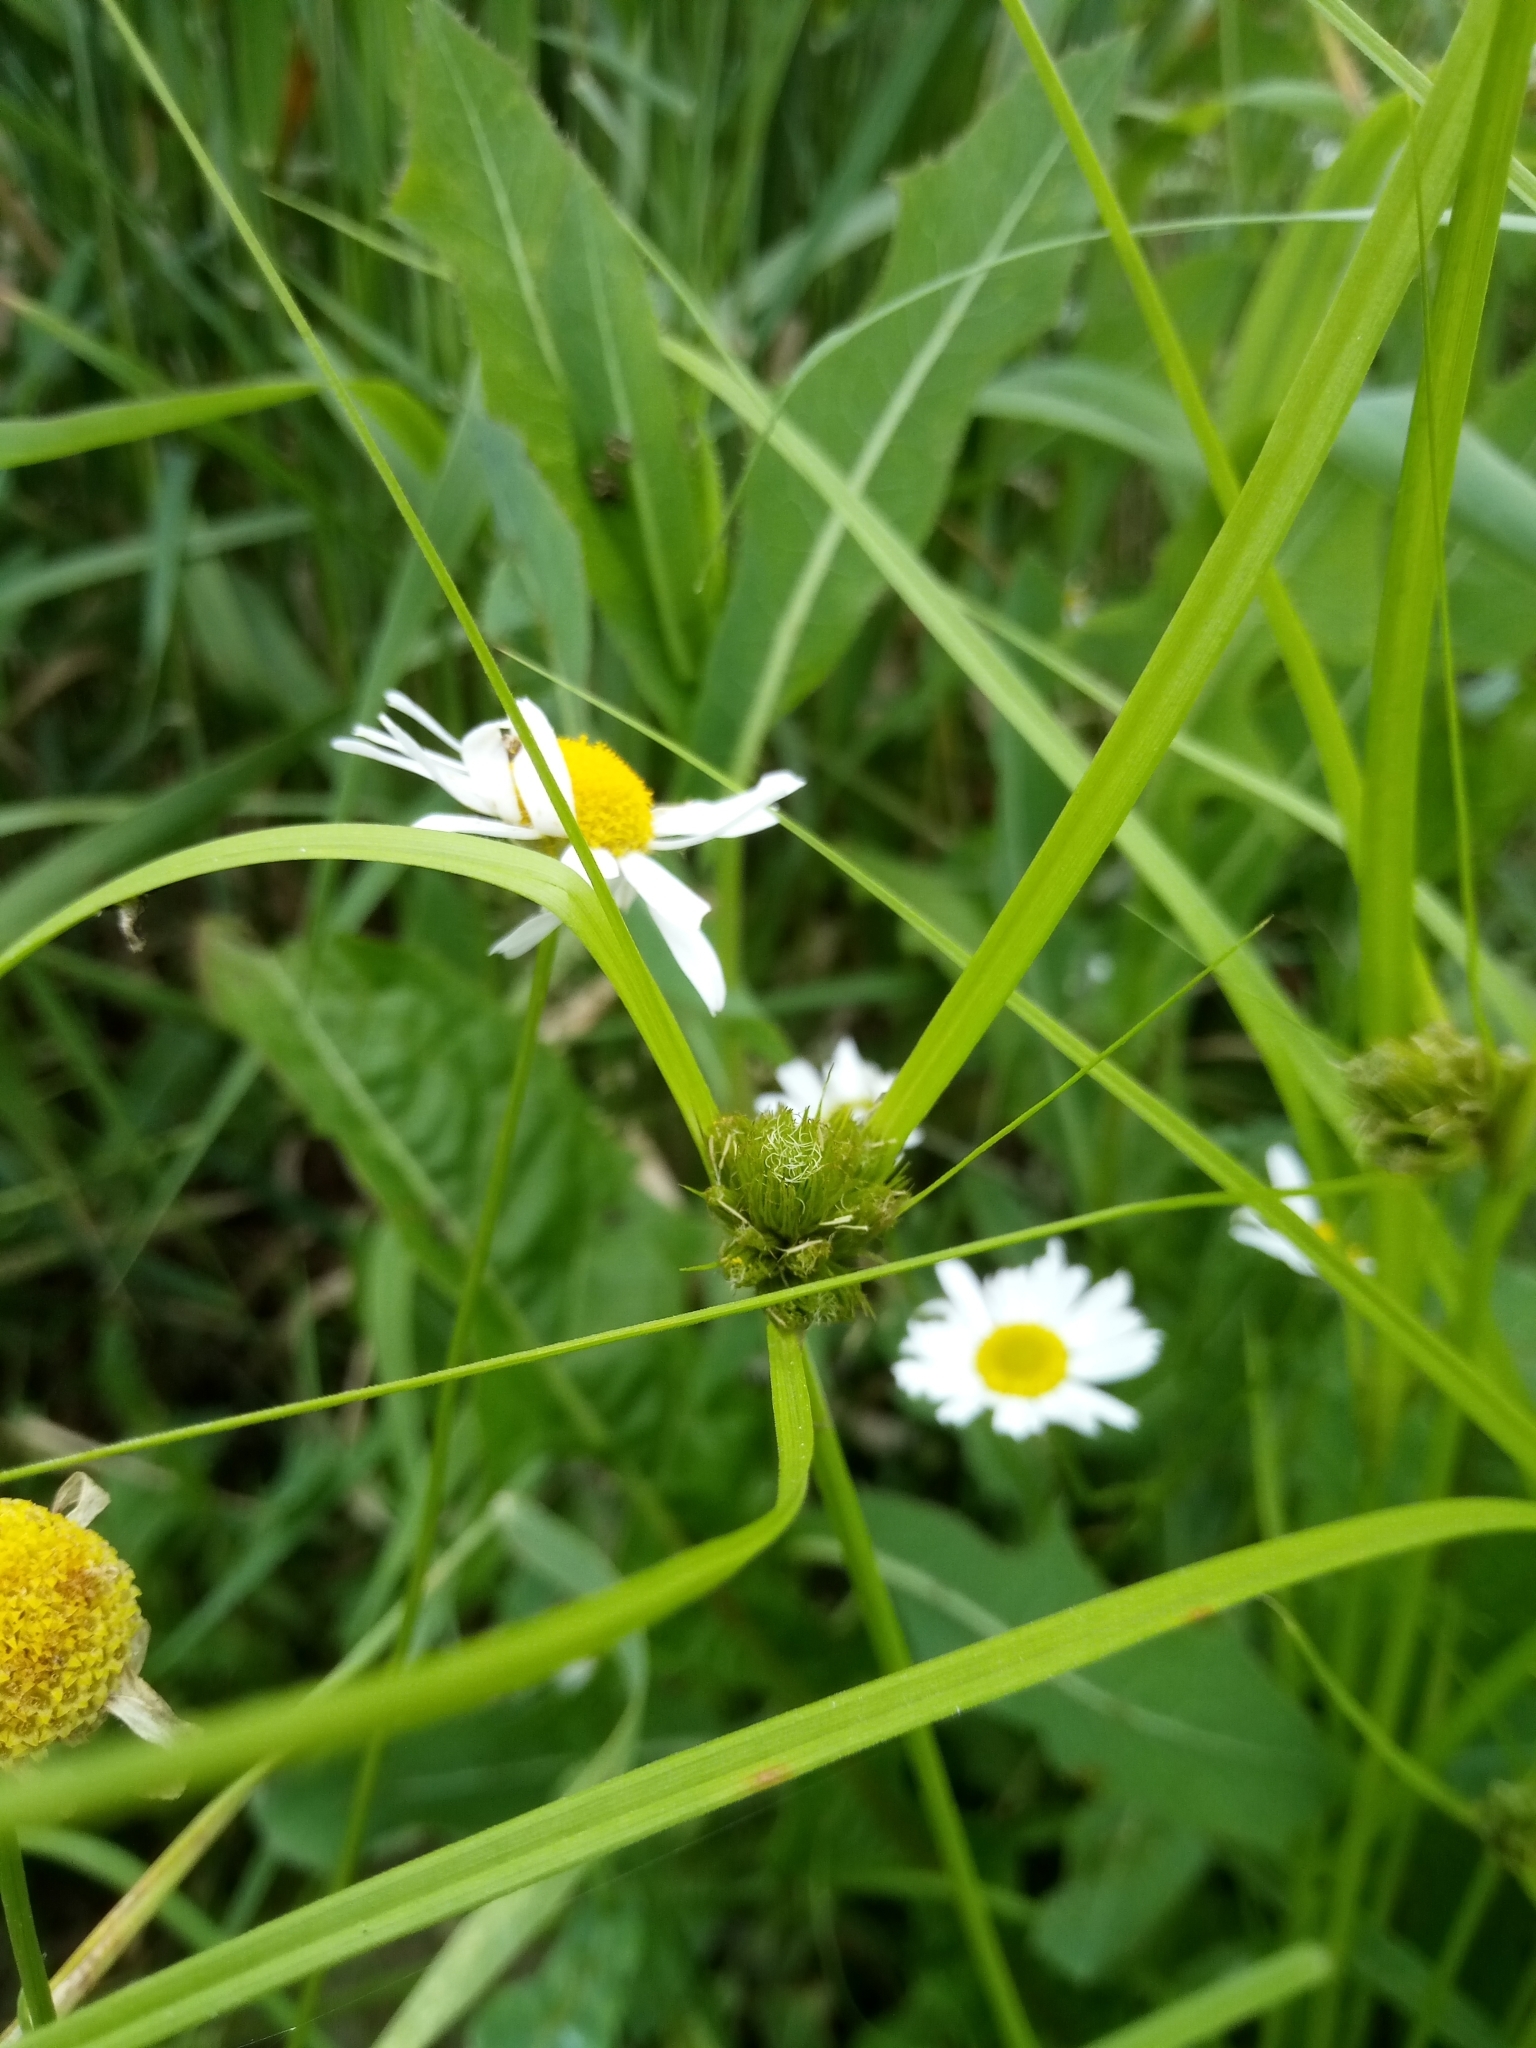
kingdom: Plantae
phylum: Tracheophyta
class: Liliopsida
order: Poales
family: Cyperaceae
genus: Carex
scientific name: Carex bohemica
